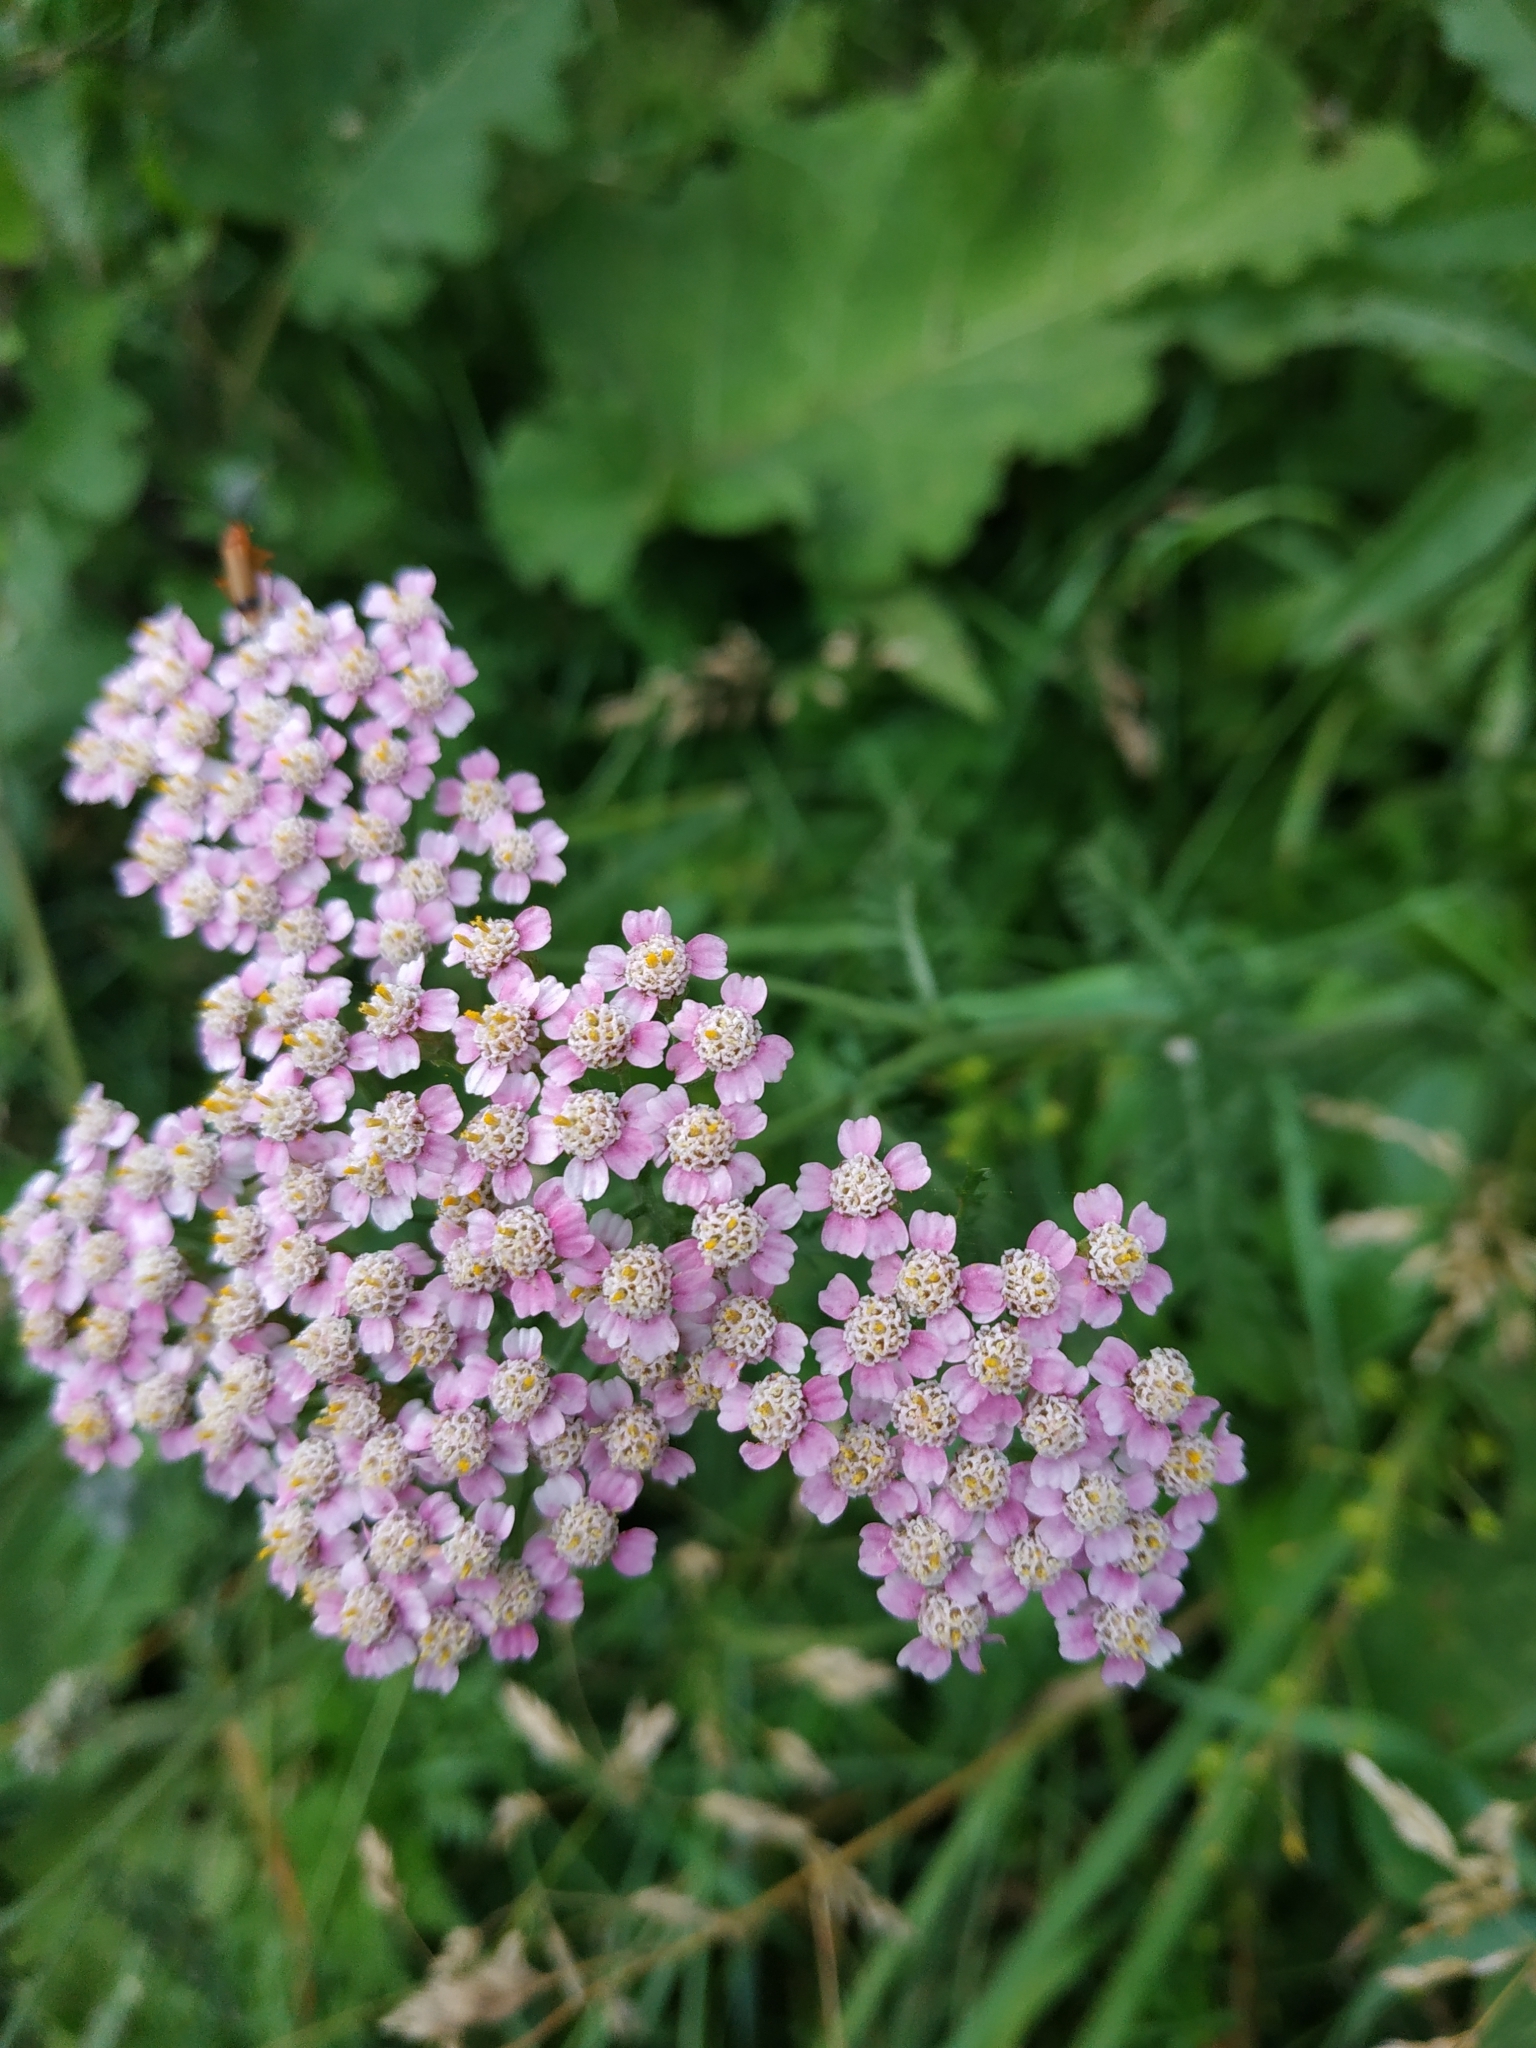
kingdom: Plantae
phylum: Tracheophyta
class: Magnoliopsida
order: Asterales
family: Asteraceae
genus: Achillea
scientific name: Achillea millefolium
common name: Yarrow
